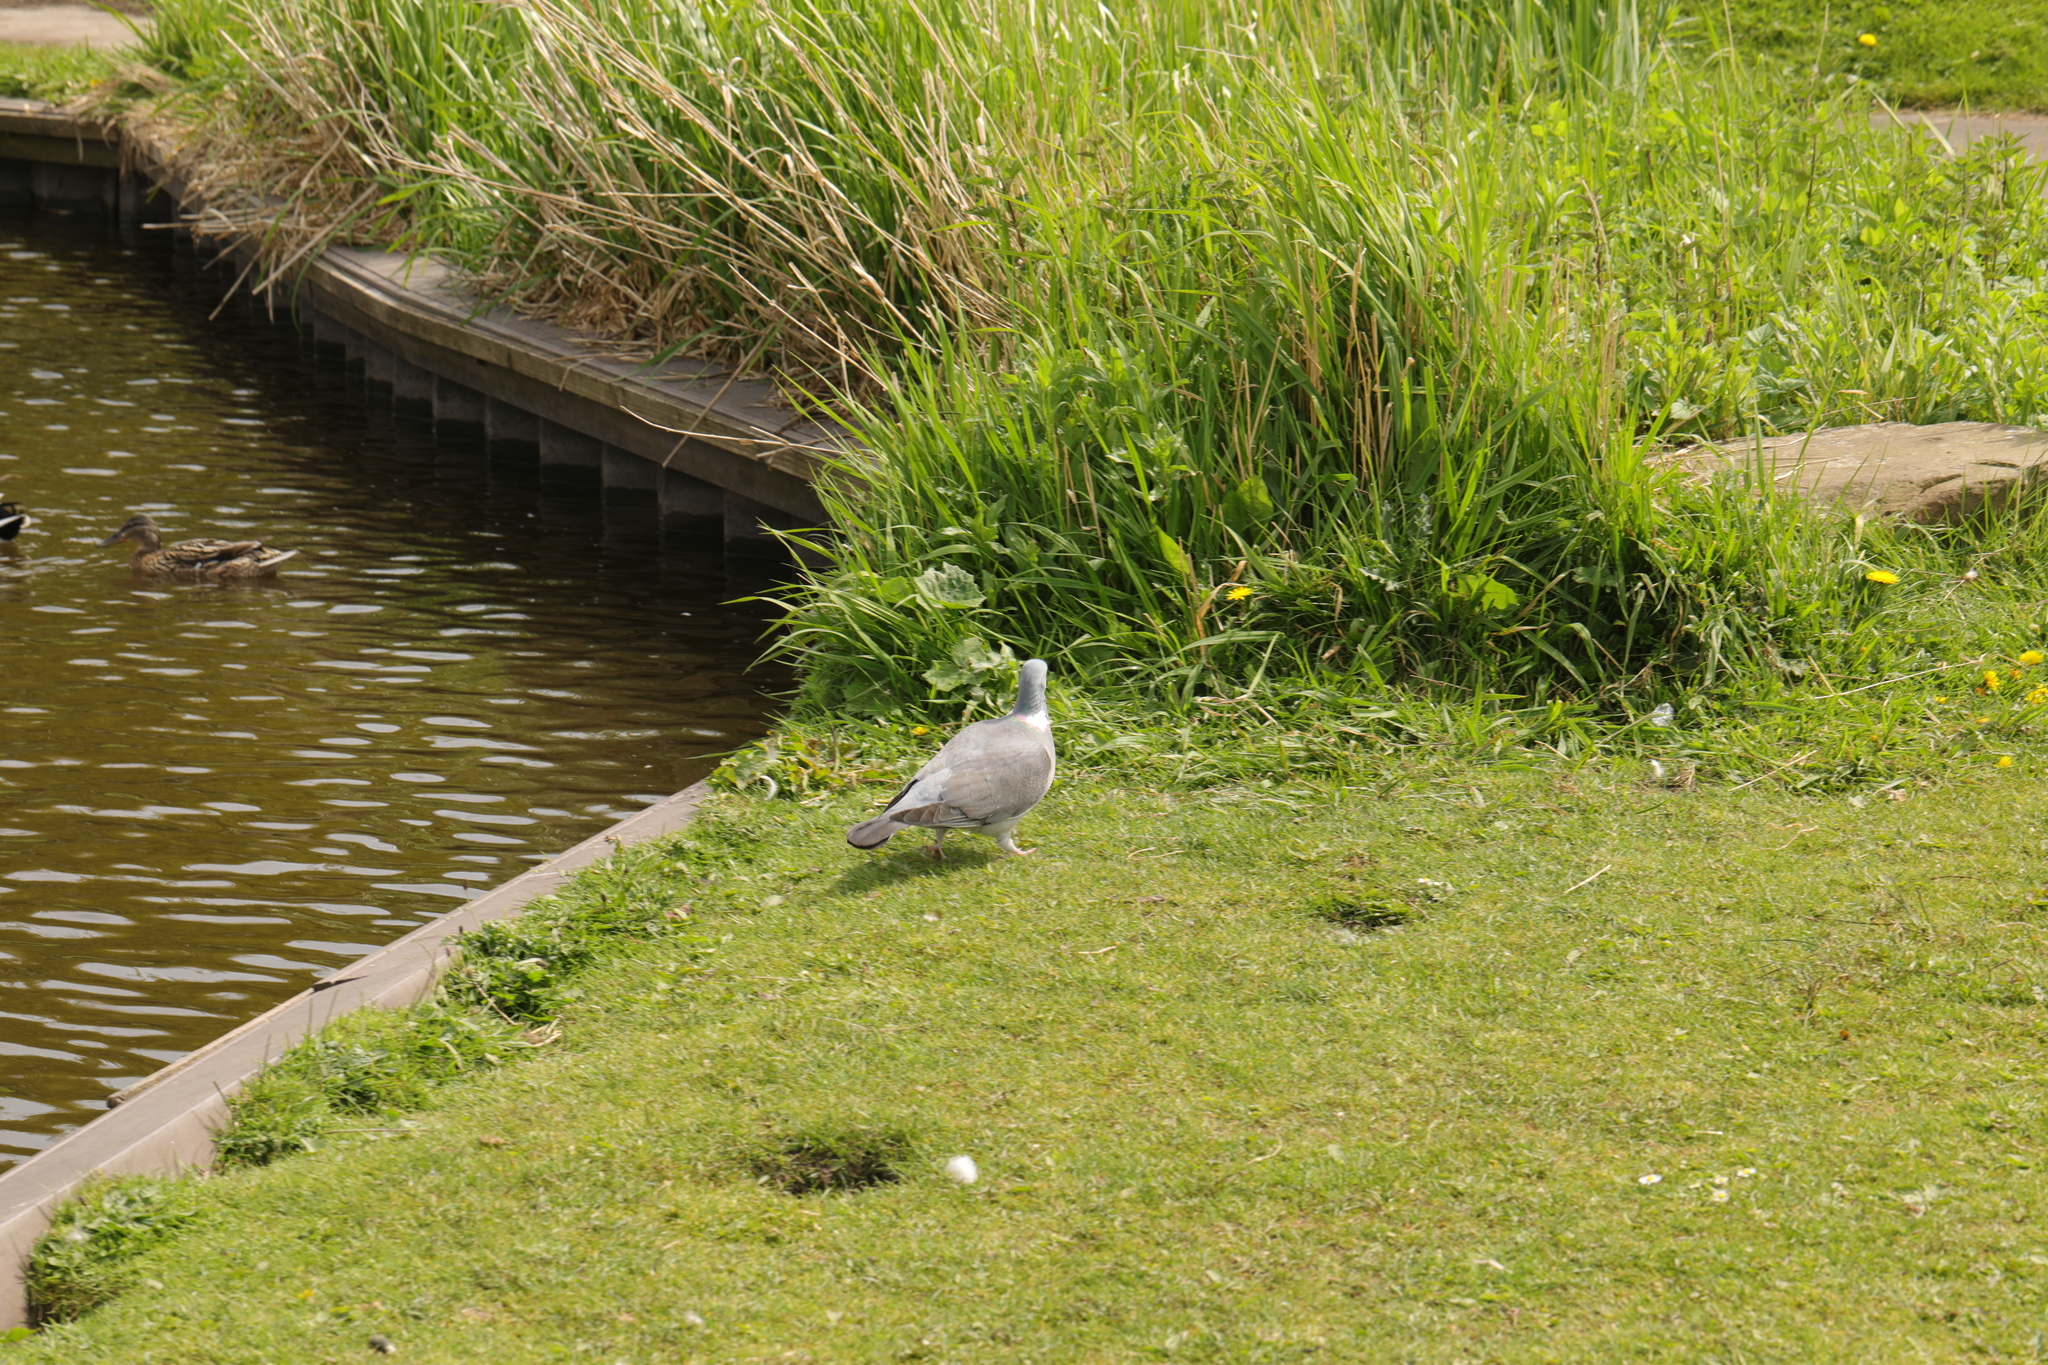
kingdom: Animalia
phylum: Chordata
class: Aves
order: Columbiformes
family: Columbidae
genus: Columba
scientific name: Columba palumbus
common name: Common wood pigeon
